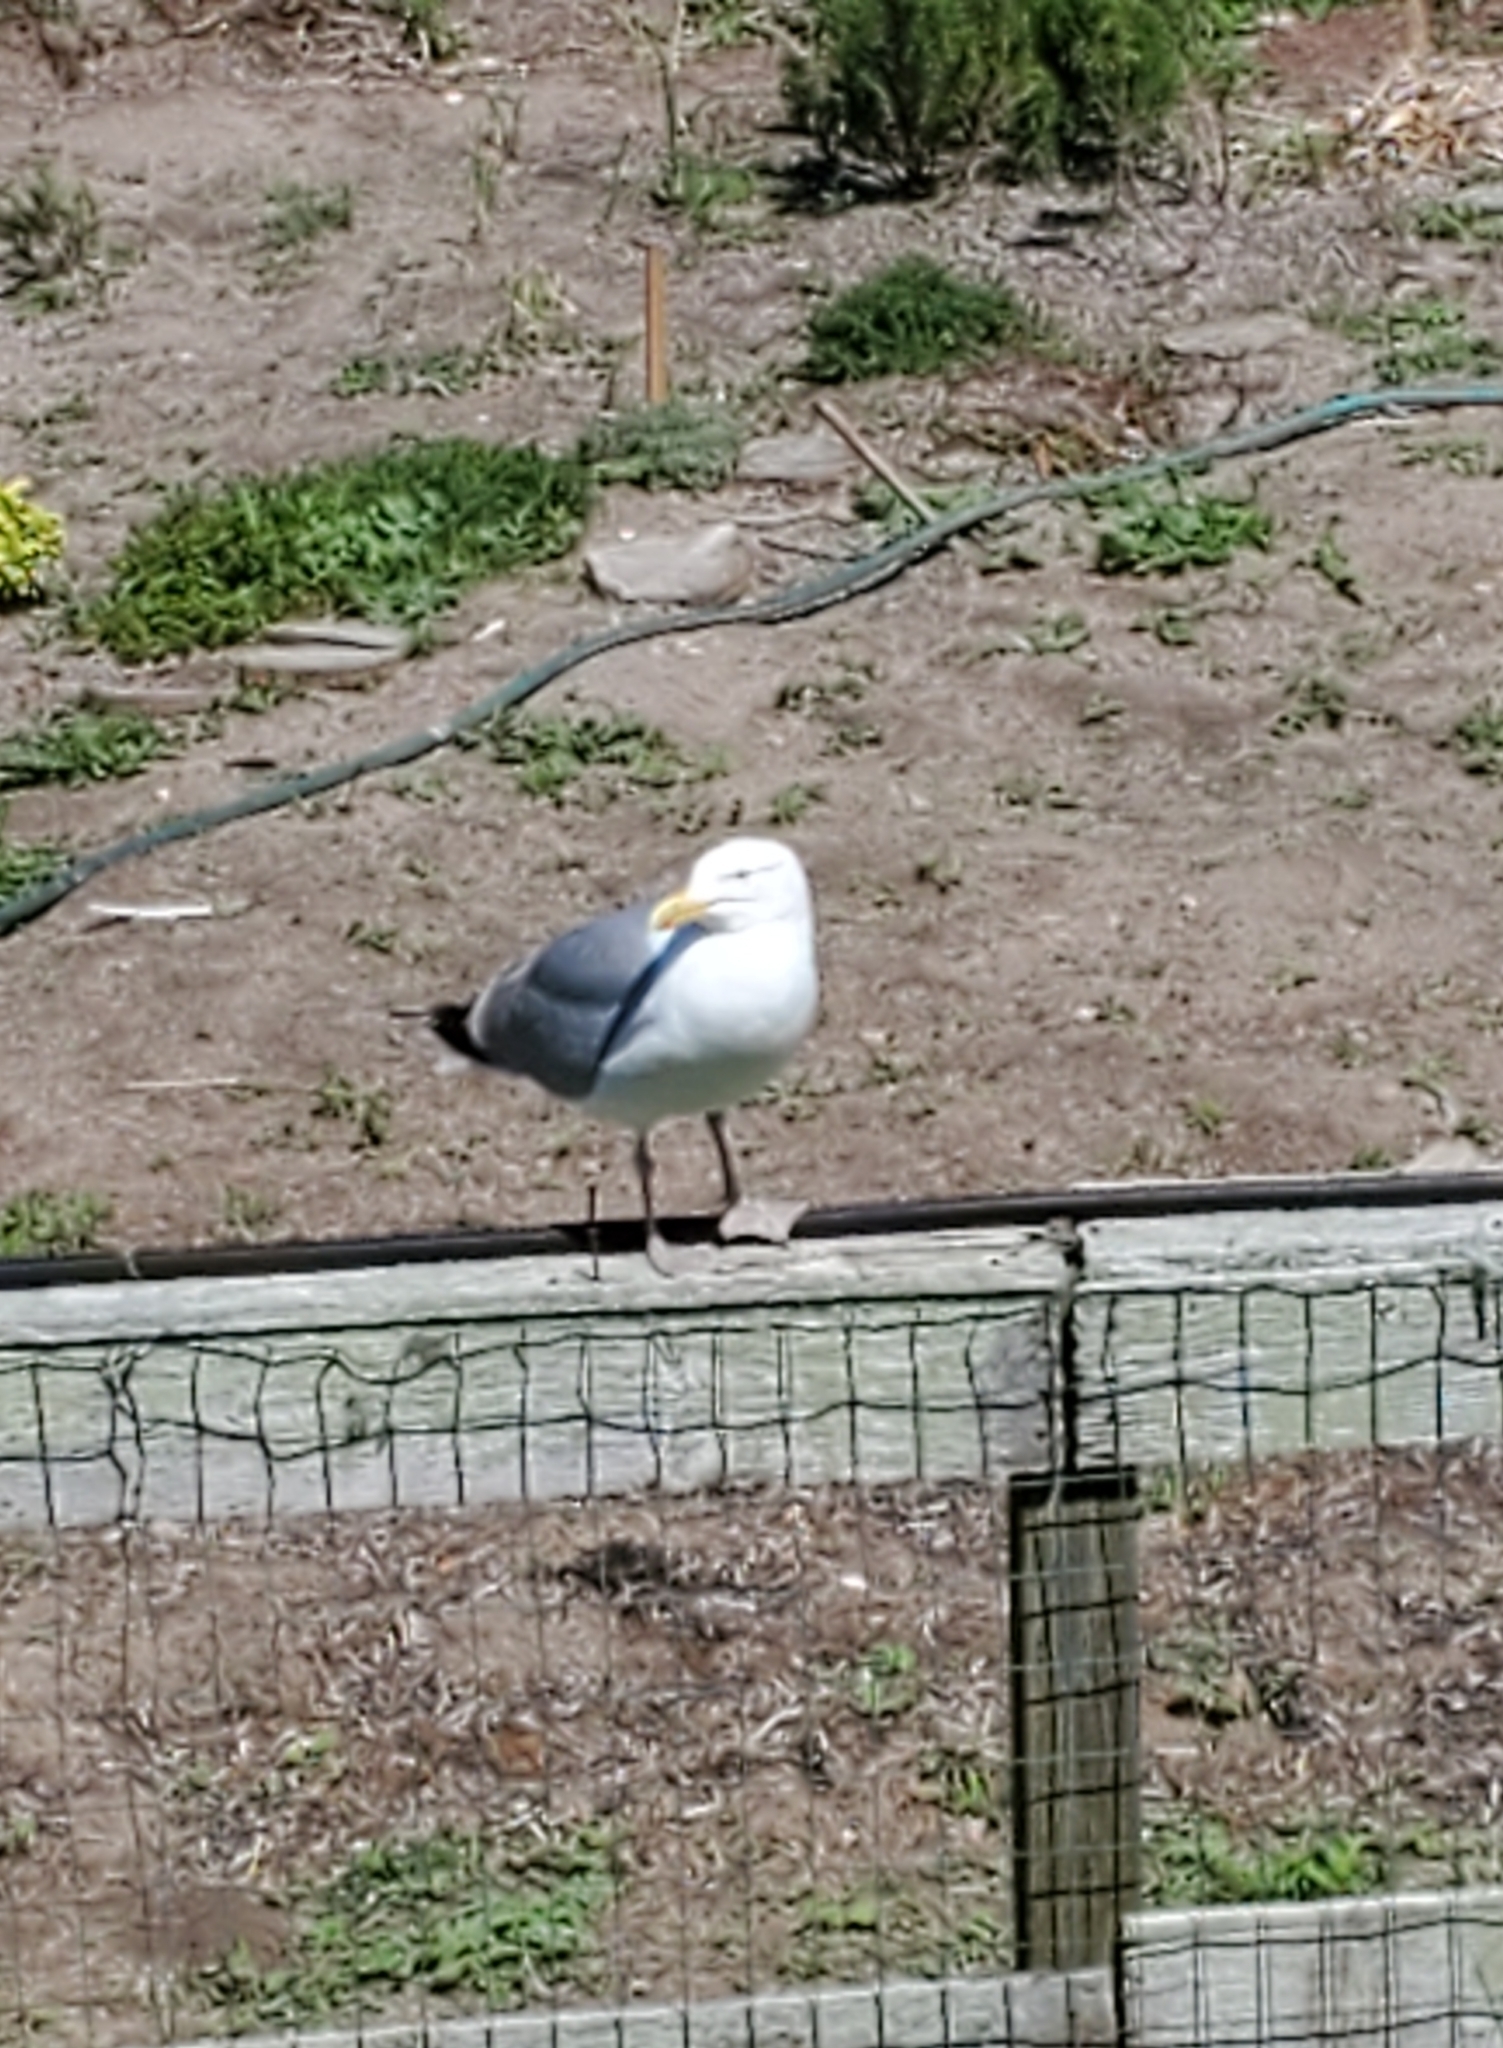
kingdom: Animalia
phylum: Chordata
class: Aves
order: Charadriiformes
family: Laridae
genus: Larus
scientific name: Larus argentatus
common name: Herring gull
